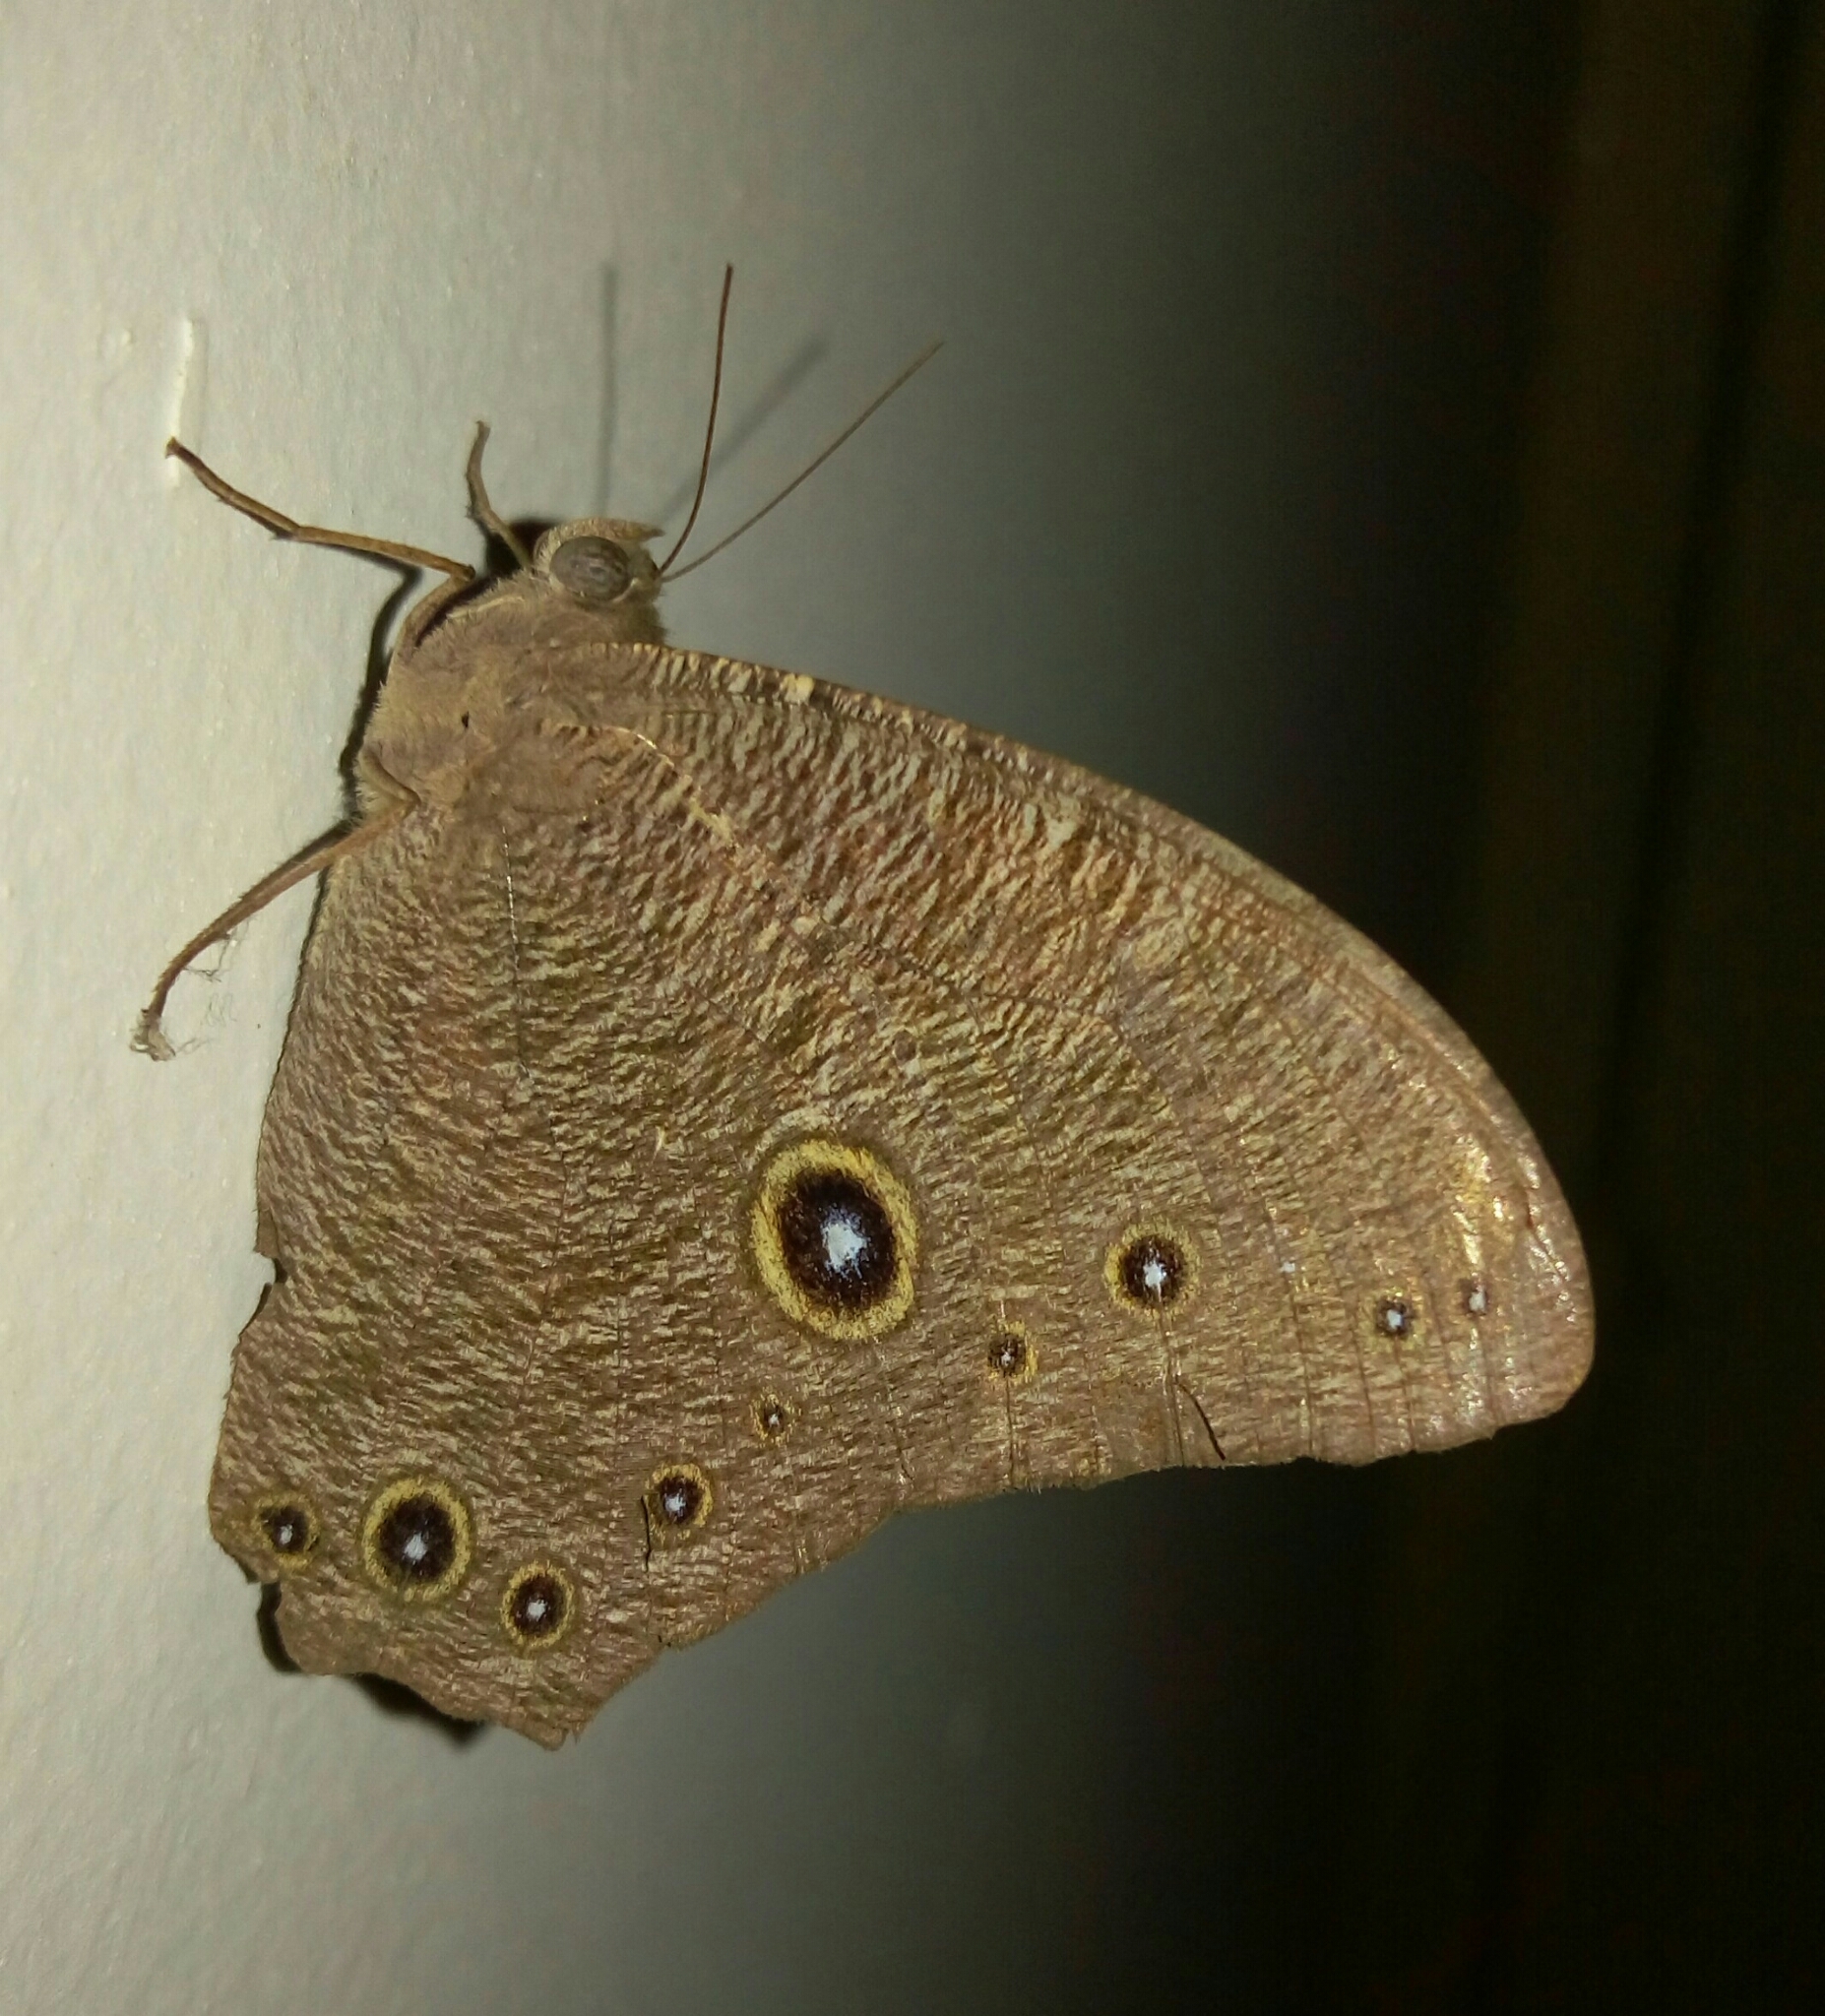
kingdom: Animalia
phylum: Arthropoda
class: Insecta
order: Lepidoptera
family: Nymphalidae
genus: Melanitis
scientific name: Melanitis leda
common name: Twilight brown
